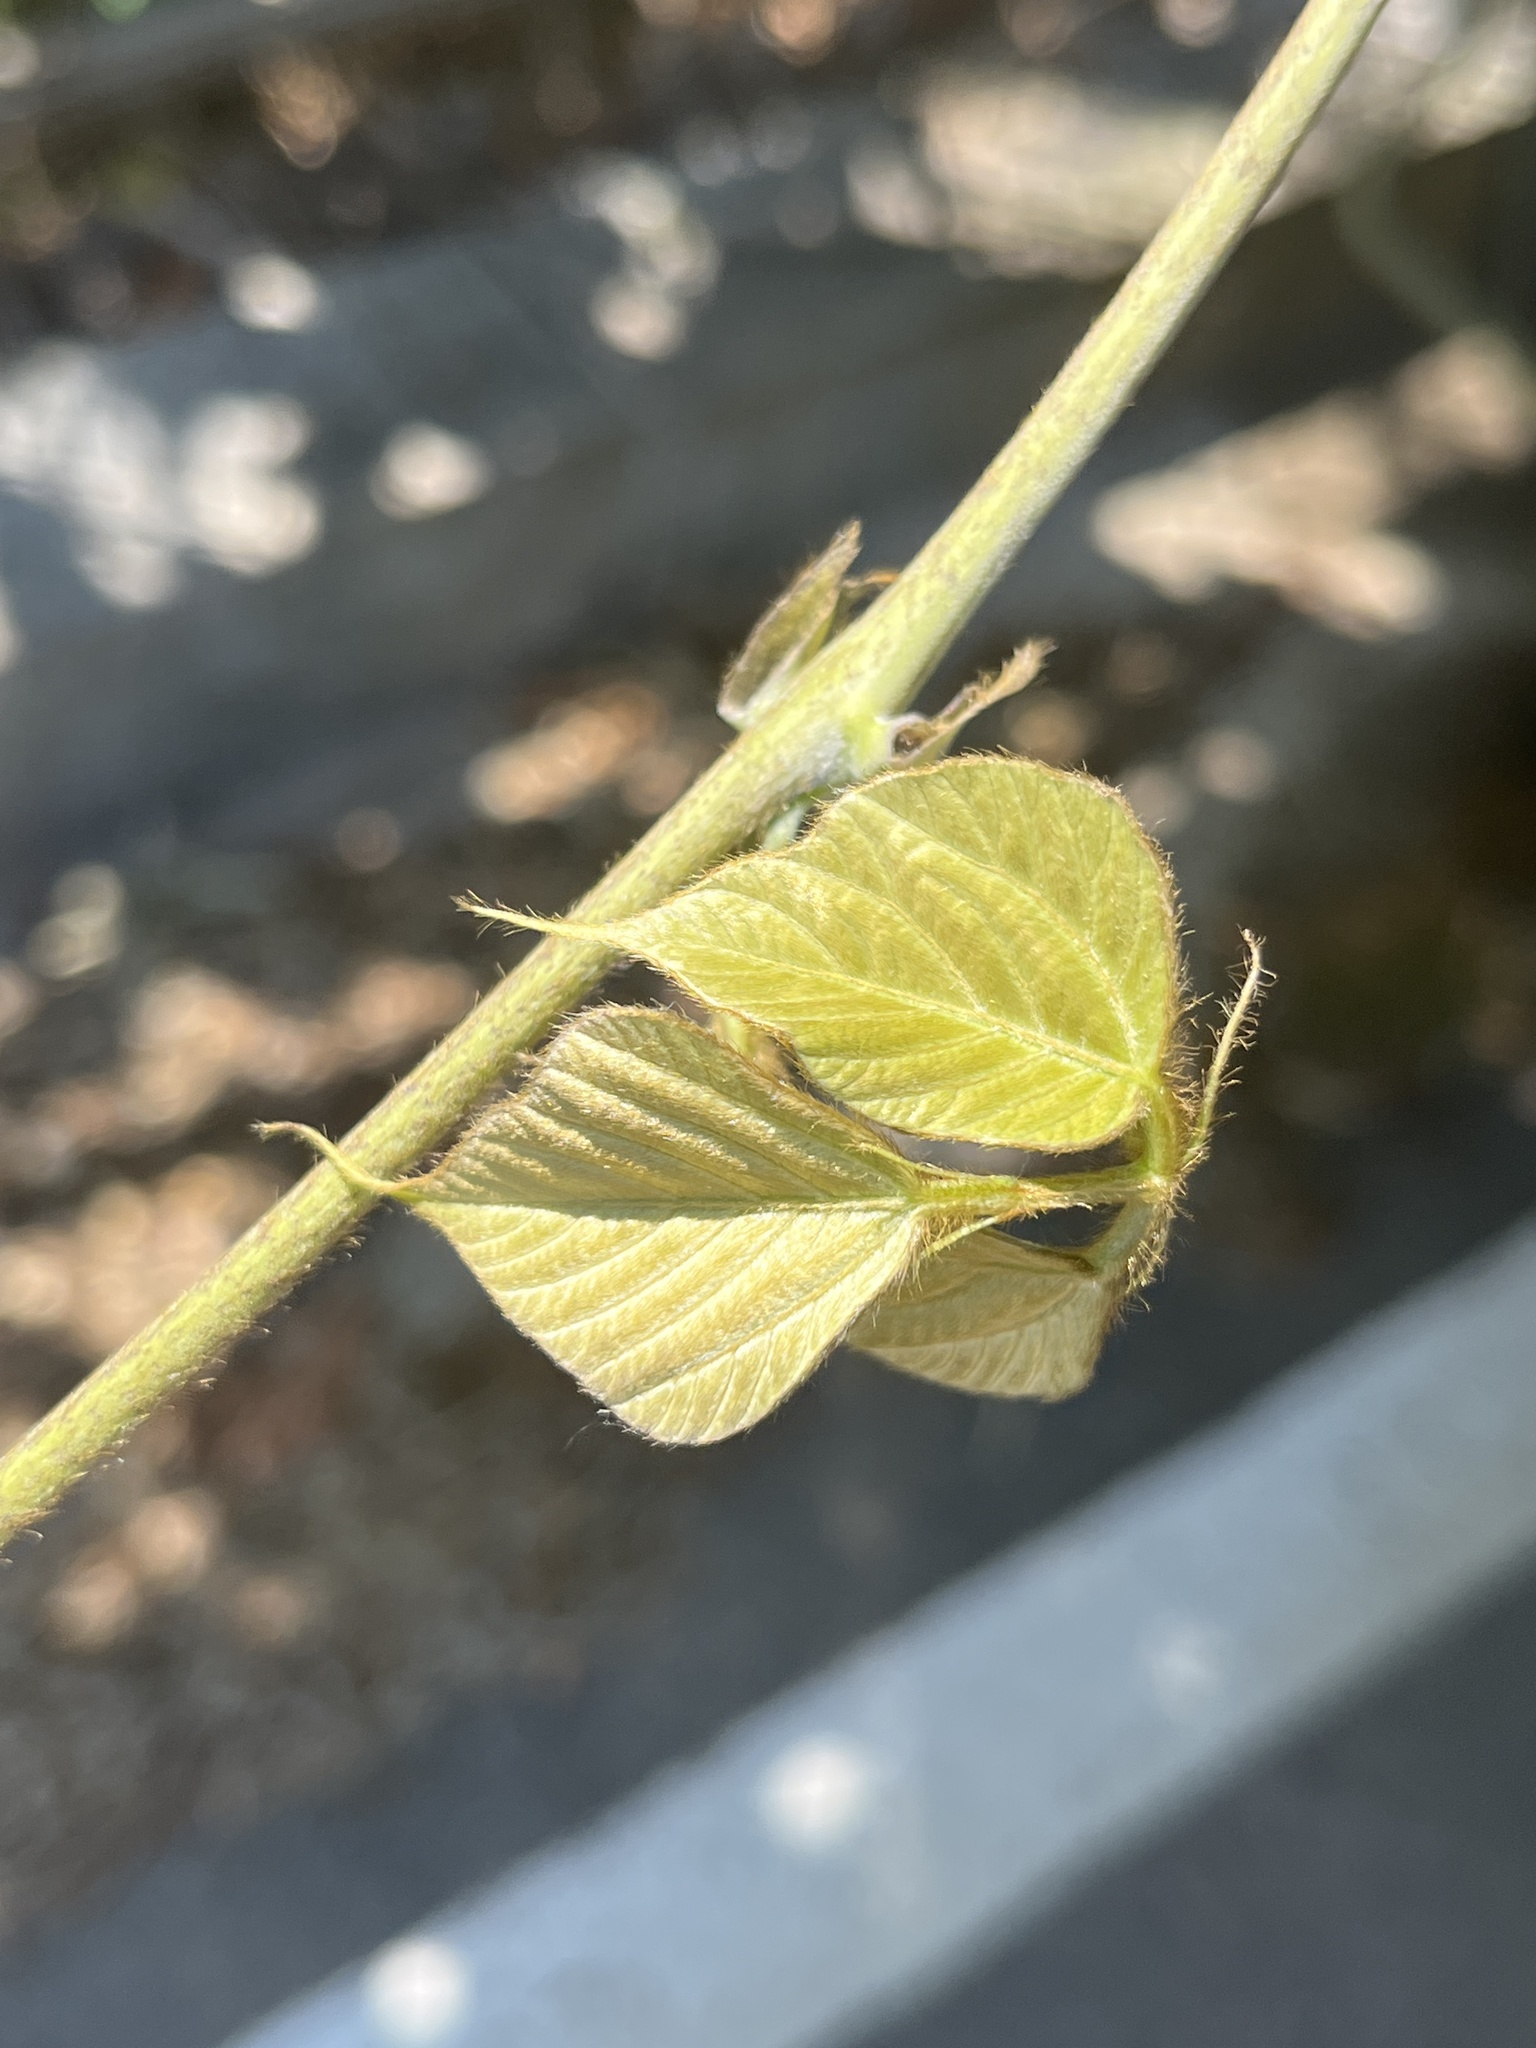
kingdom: Plantae
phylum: Tracheophyta
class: Magnoliopsida
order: Fabales
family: Fabaceae
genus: Pueraria
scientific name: Pueraria montana
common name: Kudzu
